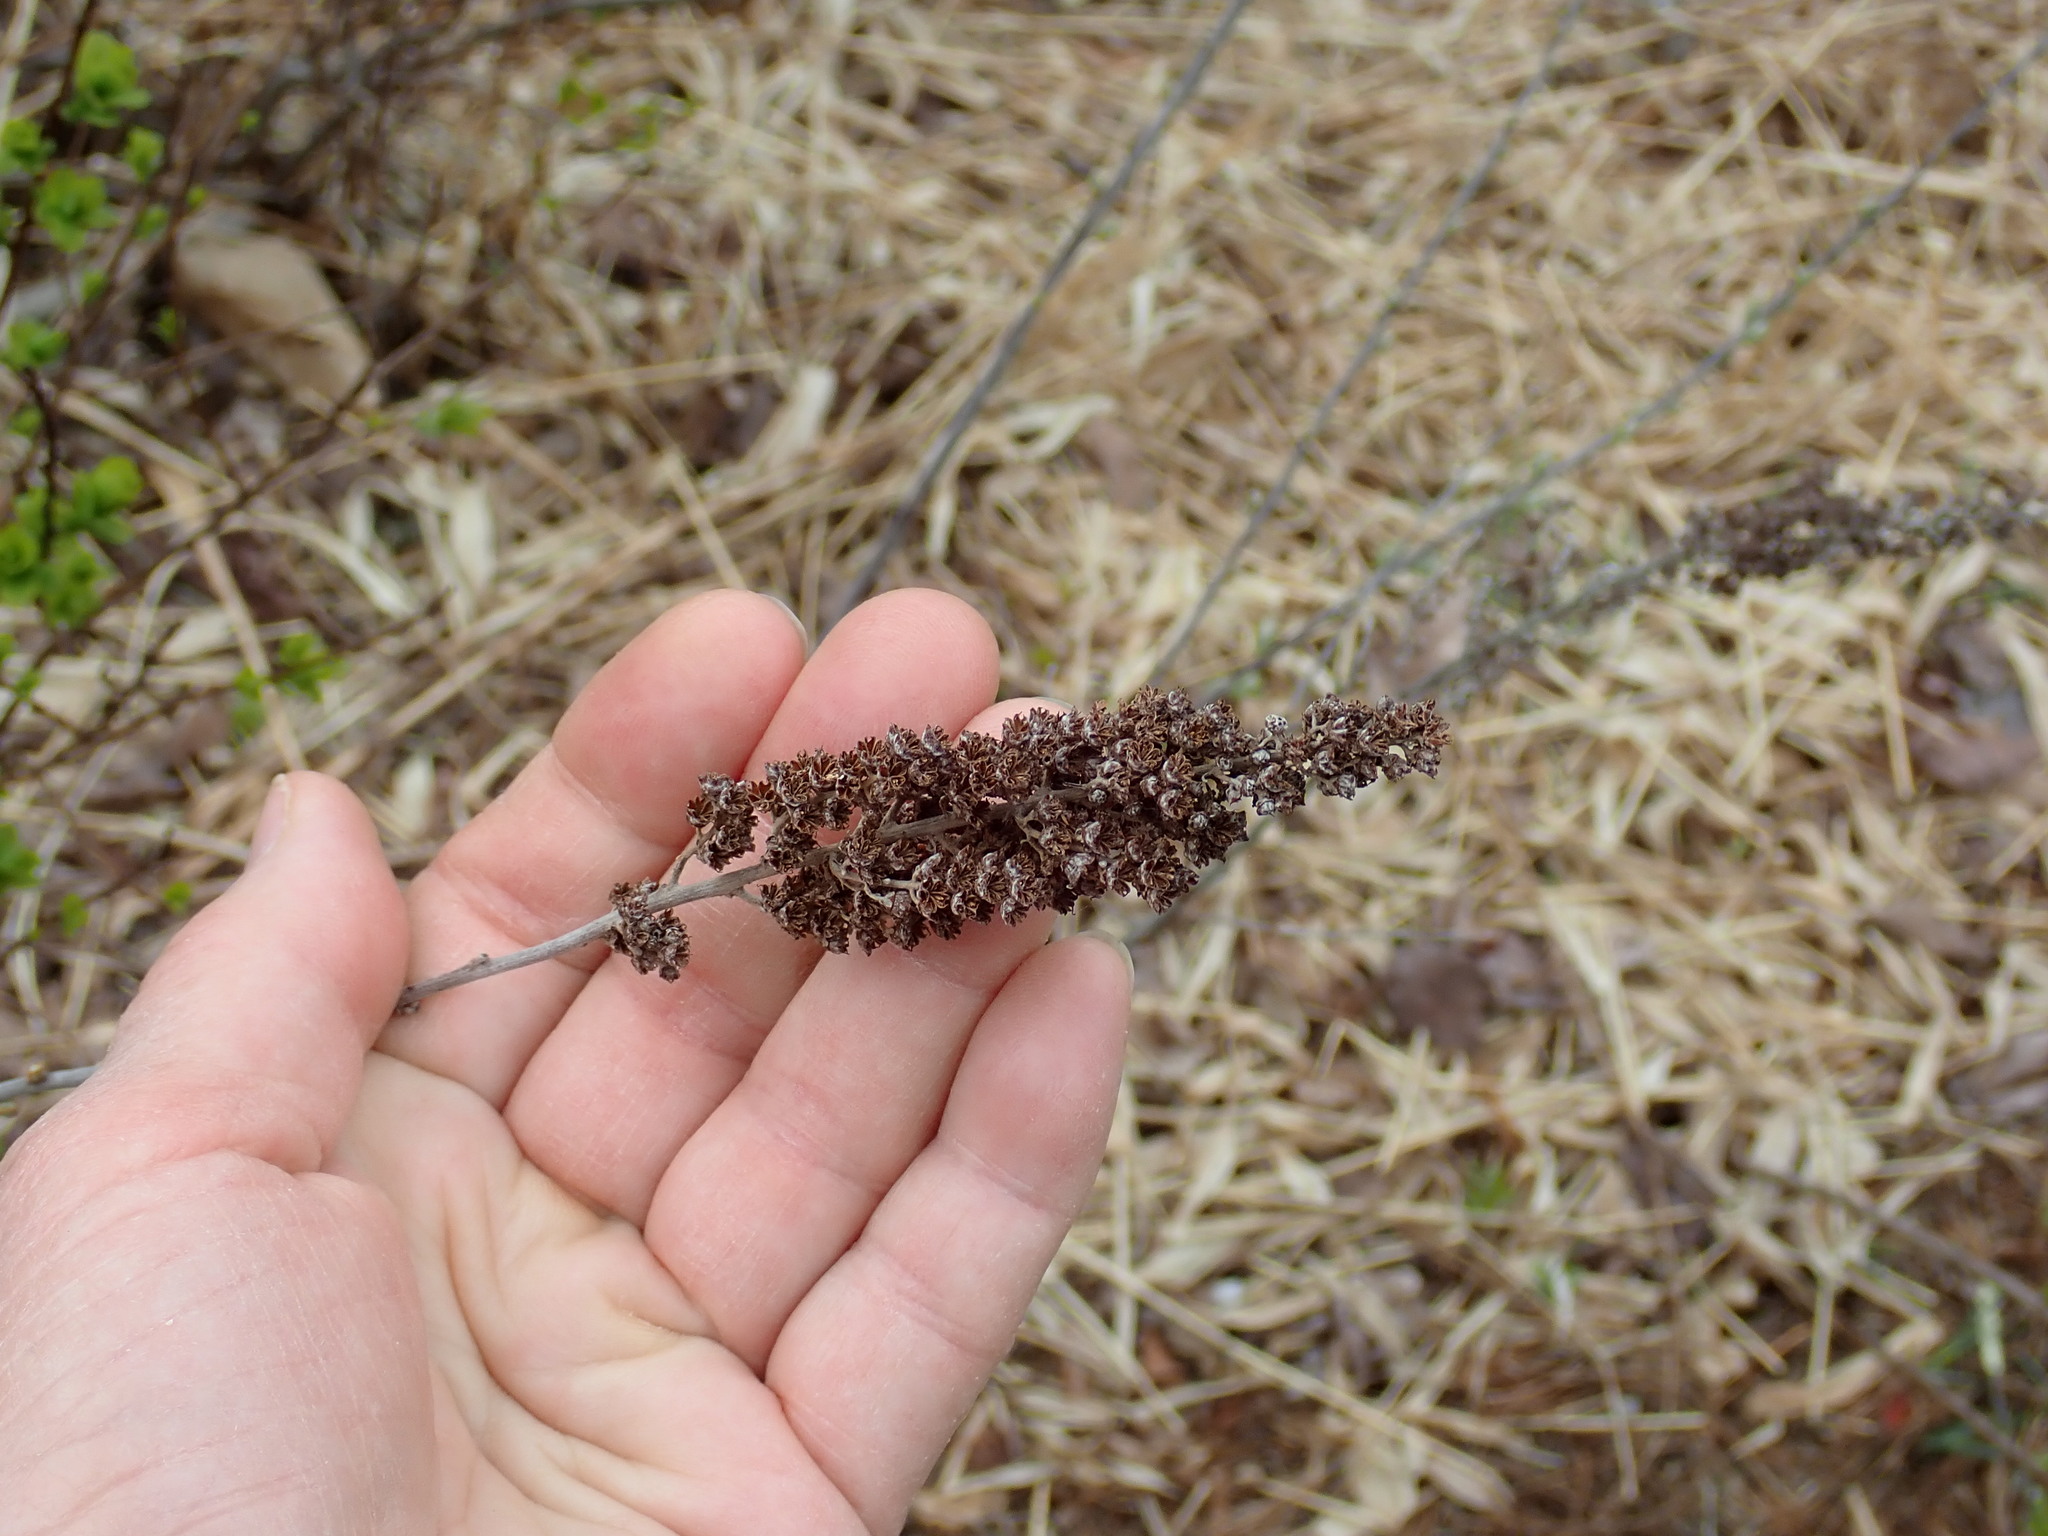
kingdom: Plantae
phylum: Tracheophyta
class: Magnoliopsida
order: Rosales
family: Rosaceae
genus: Spiraea
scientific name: Spiraea tomentosa
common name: Hardhack
